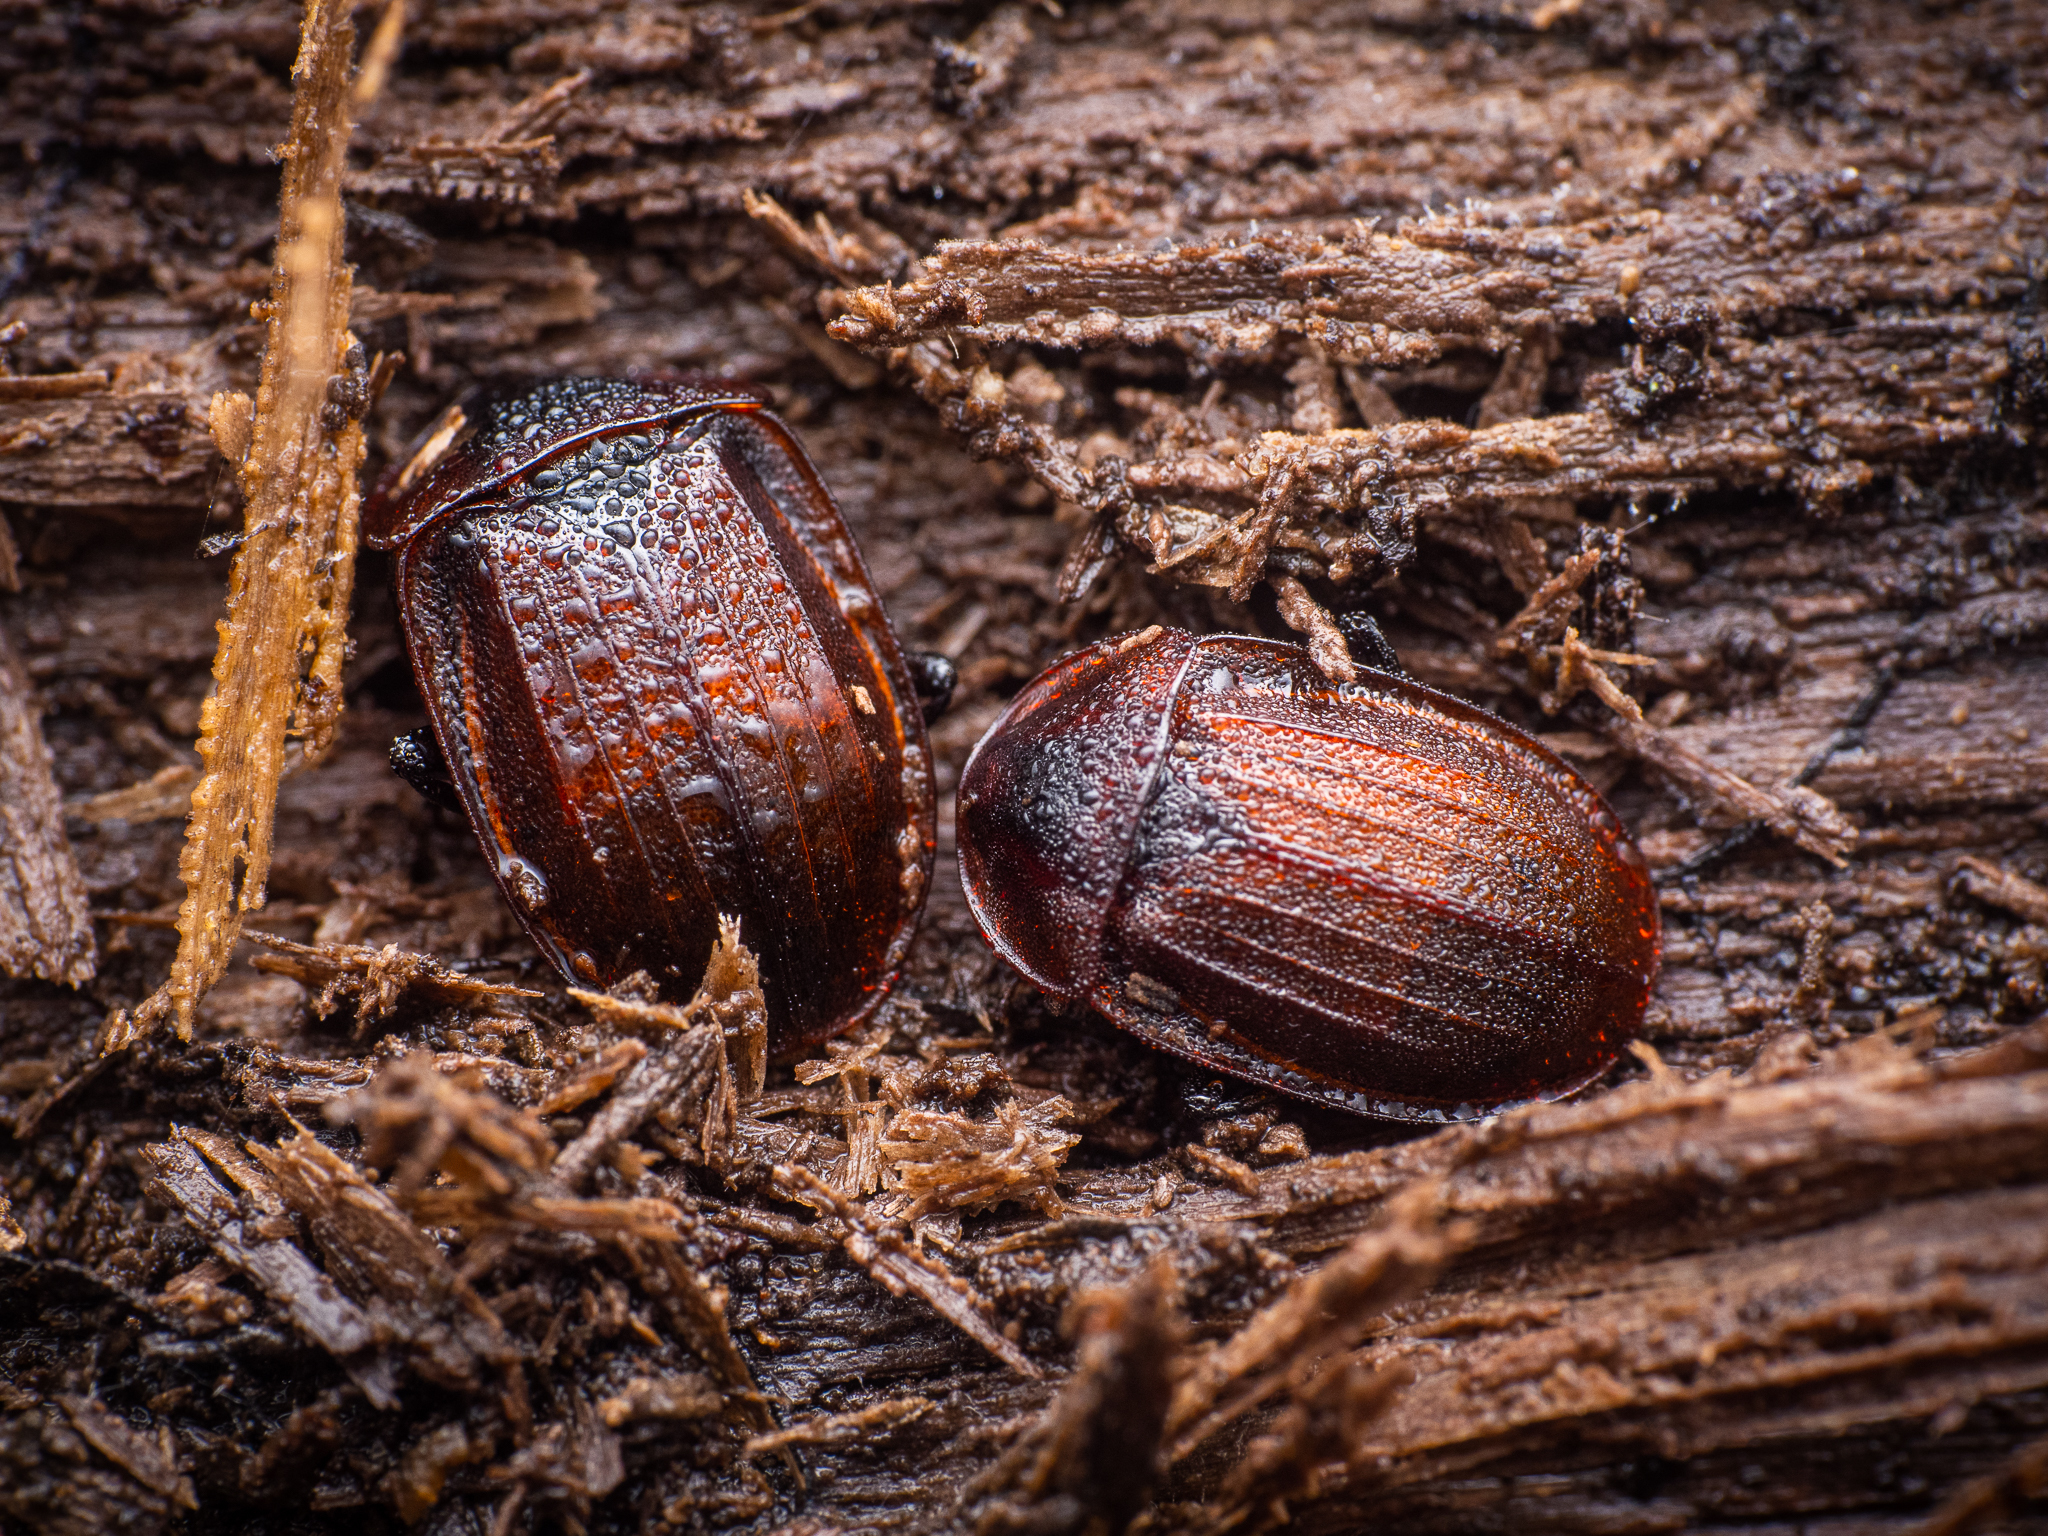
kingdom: Animalia
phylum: Arthropoda
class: Insecta
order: Coleoptera
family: Staphylinidae
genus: Silpha
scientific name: Silpha atrata
